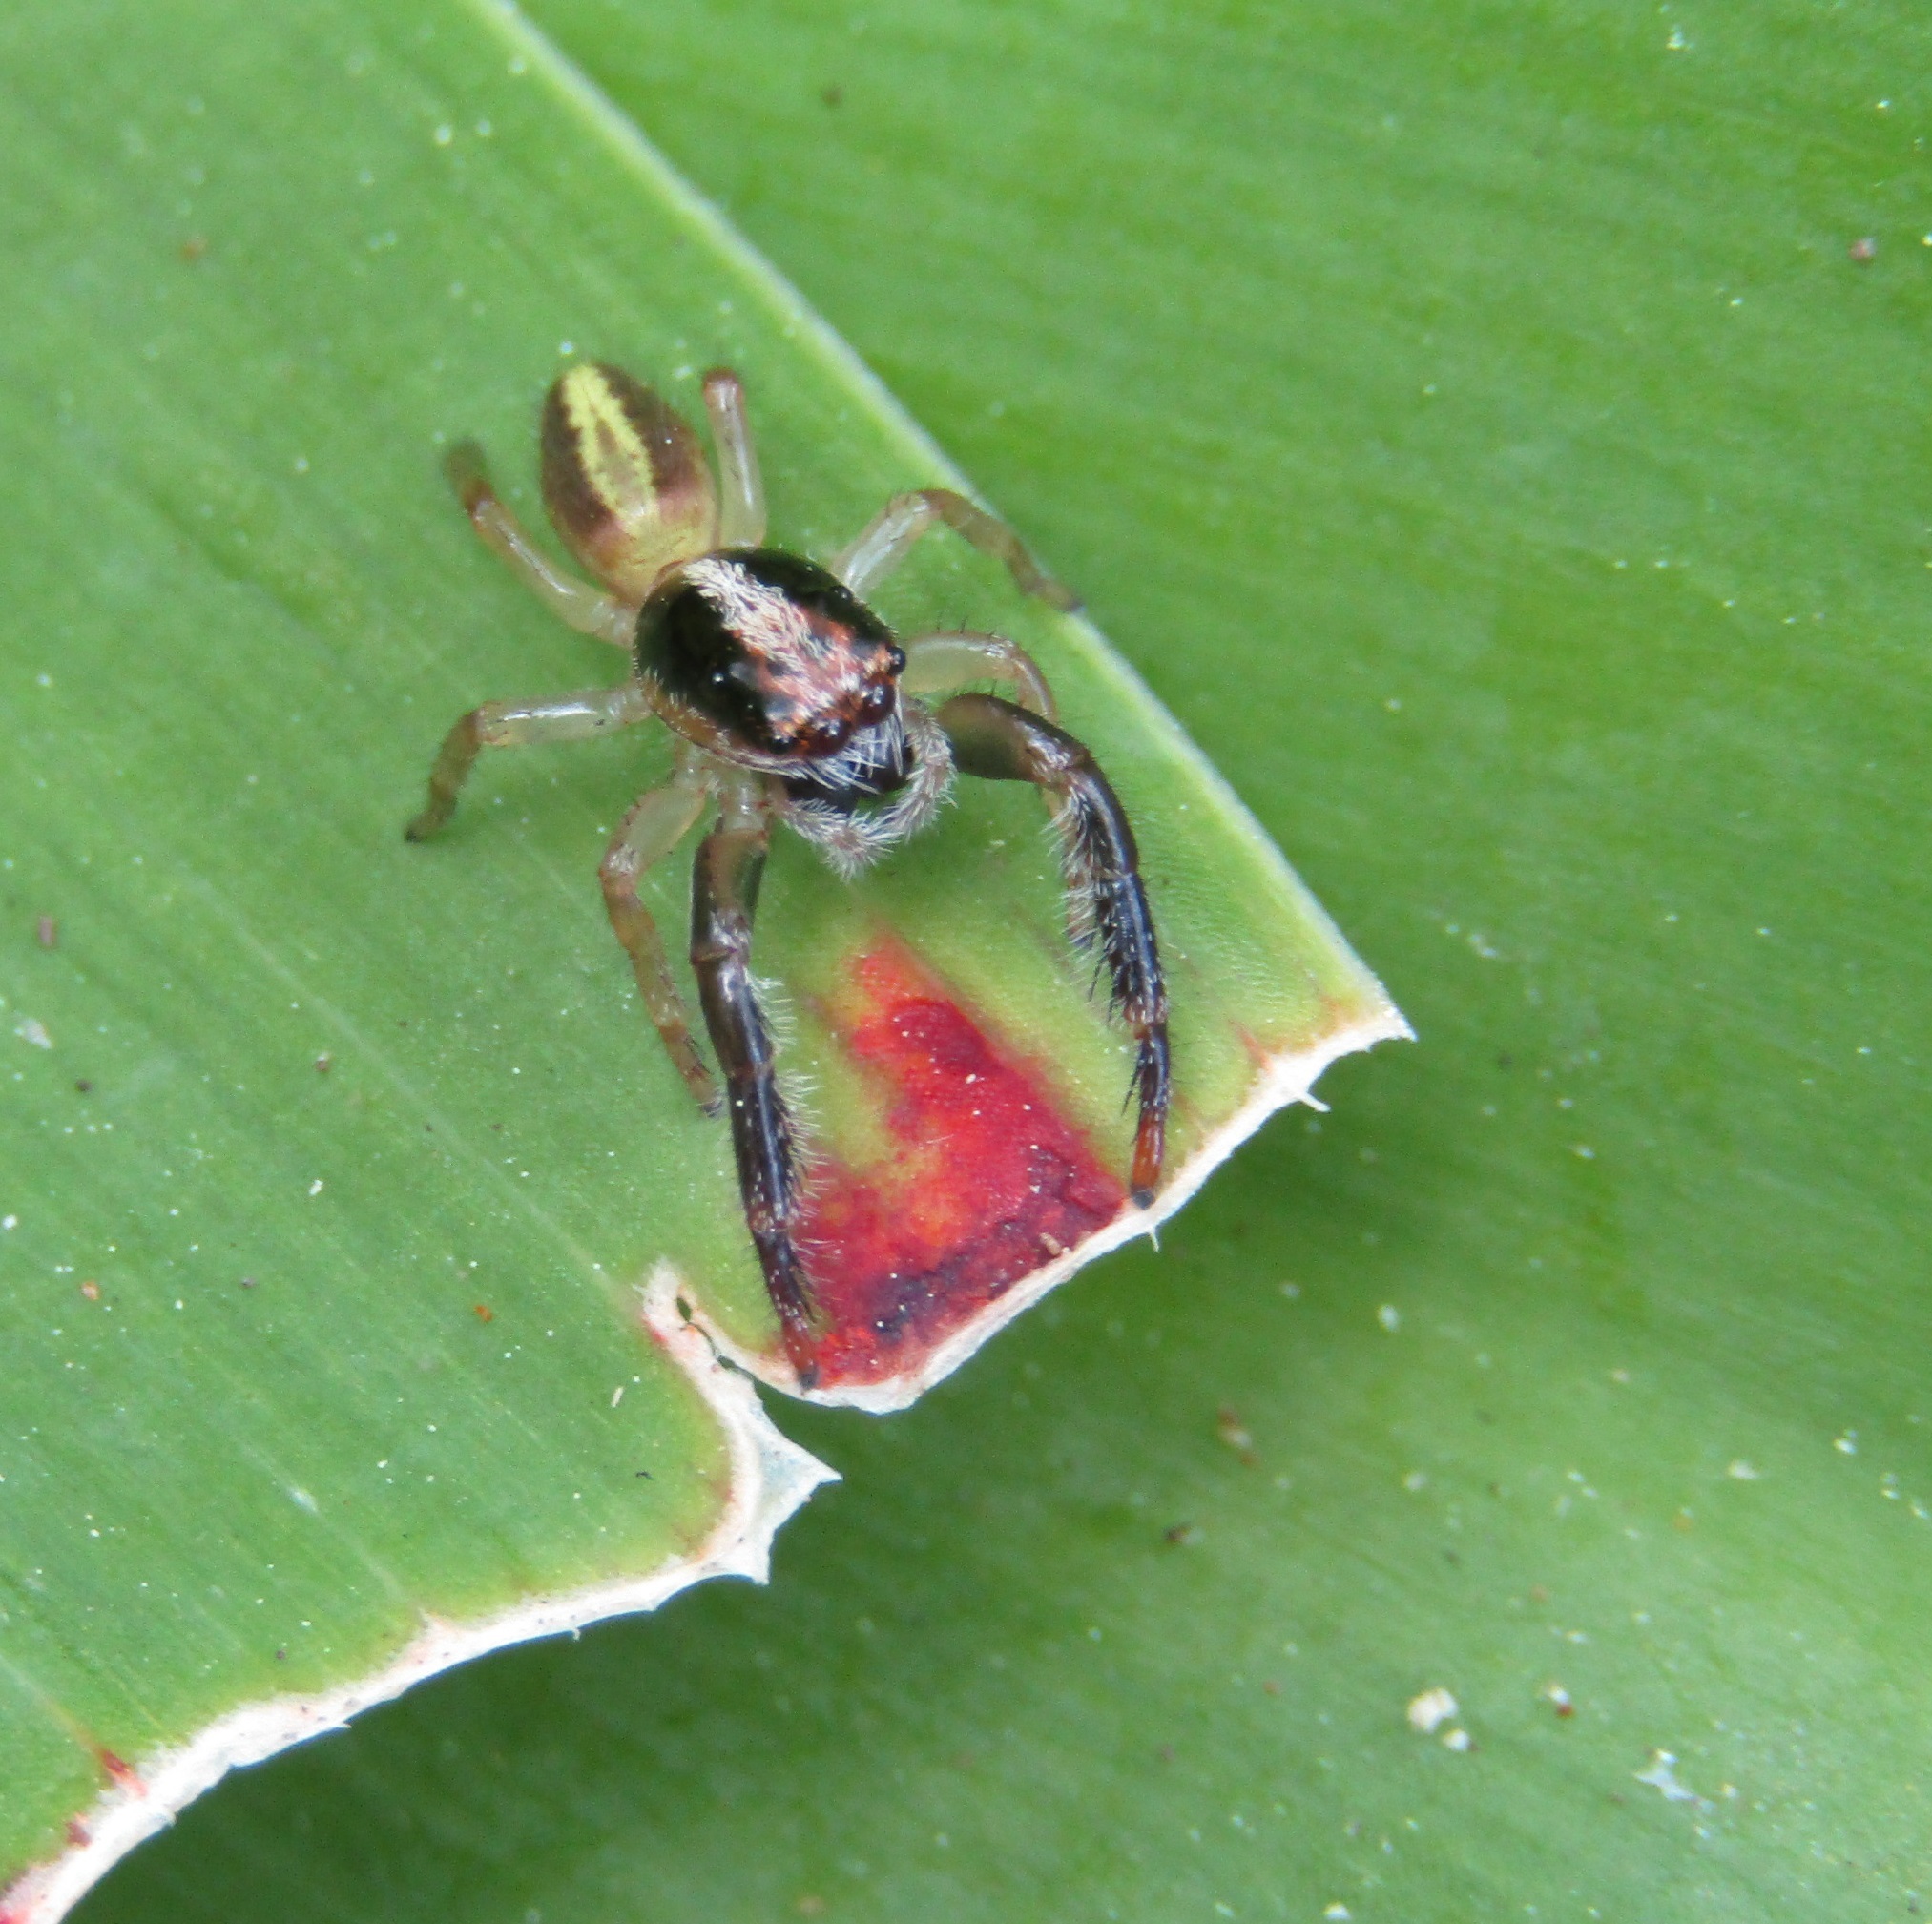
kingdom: Animalia
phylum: Arthropoda
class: Arachnida
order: Araneae
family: Salticidae
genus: Trite
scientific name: Trite planiceps
